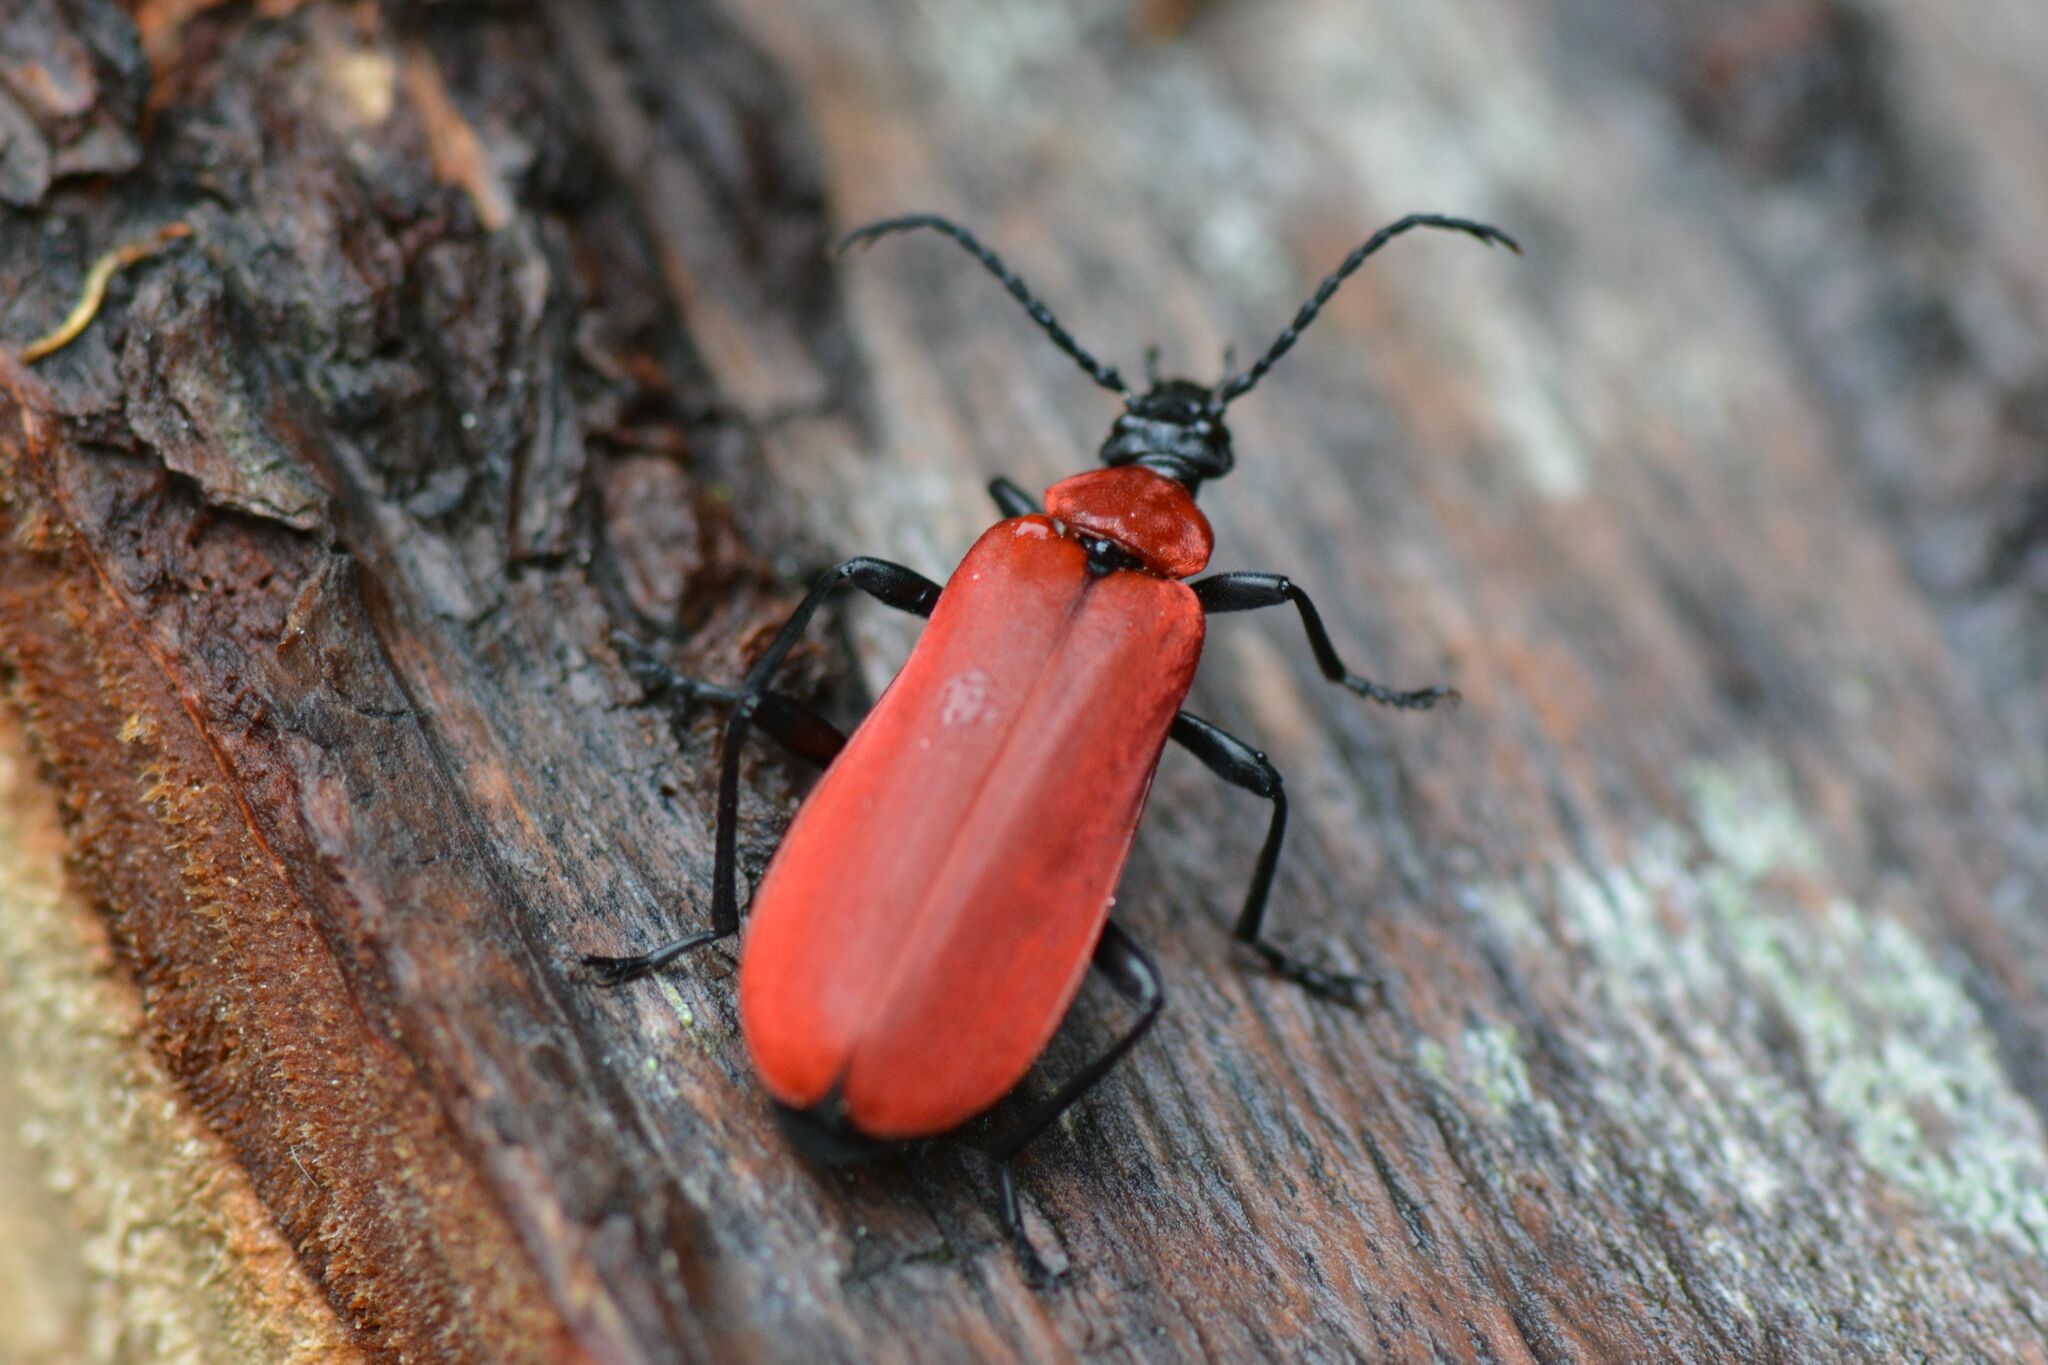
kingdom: Animalia
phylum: Arthropoda
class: Insecta
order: Coleoptera
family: Pyrochroidae
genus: Pyrochroa
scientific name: Pyrochroa coccinea
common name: Black-headed cardinal beetle
